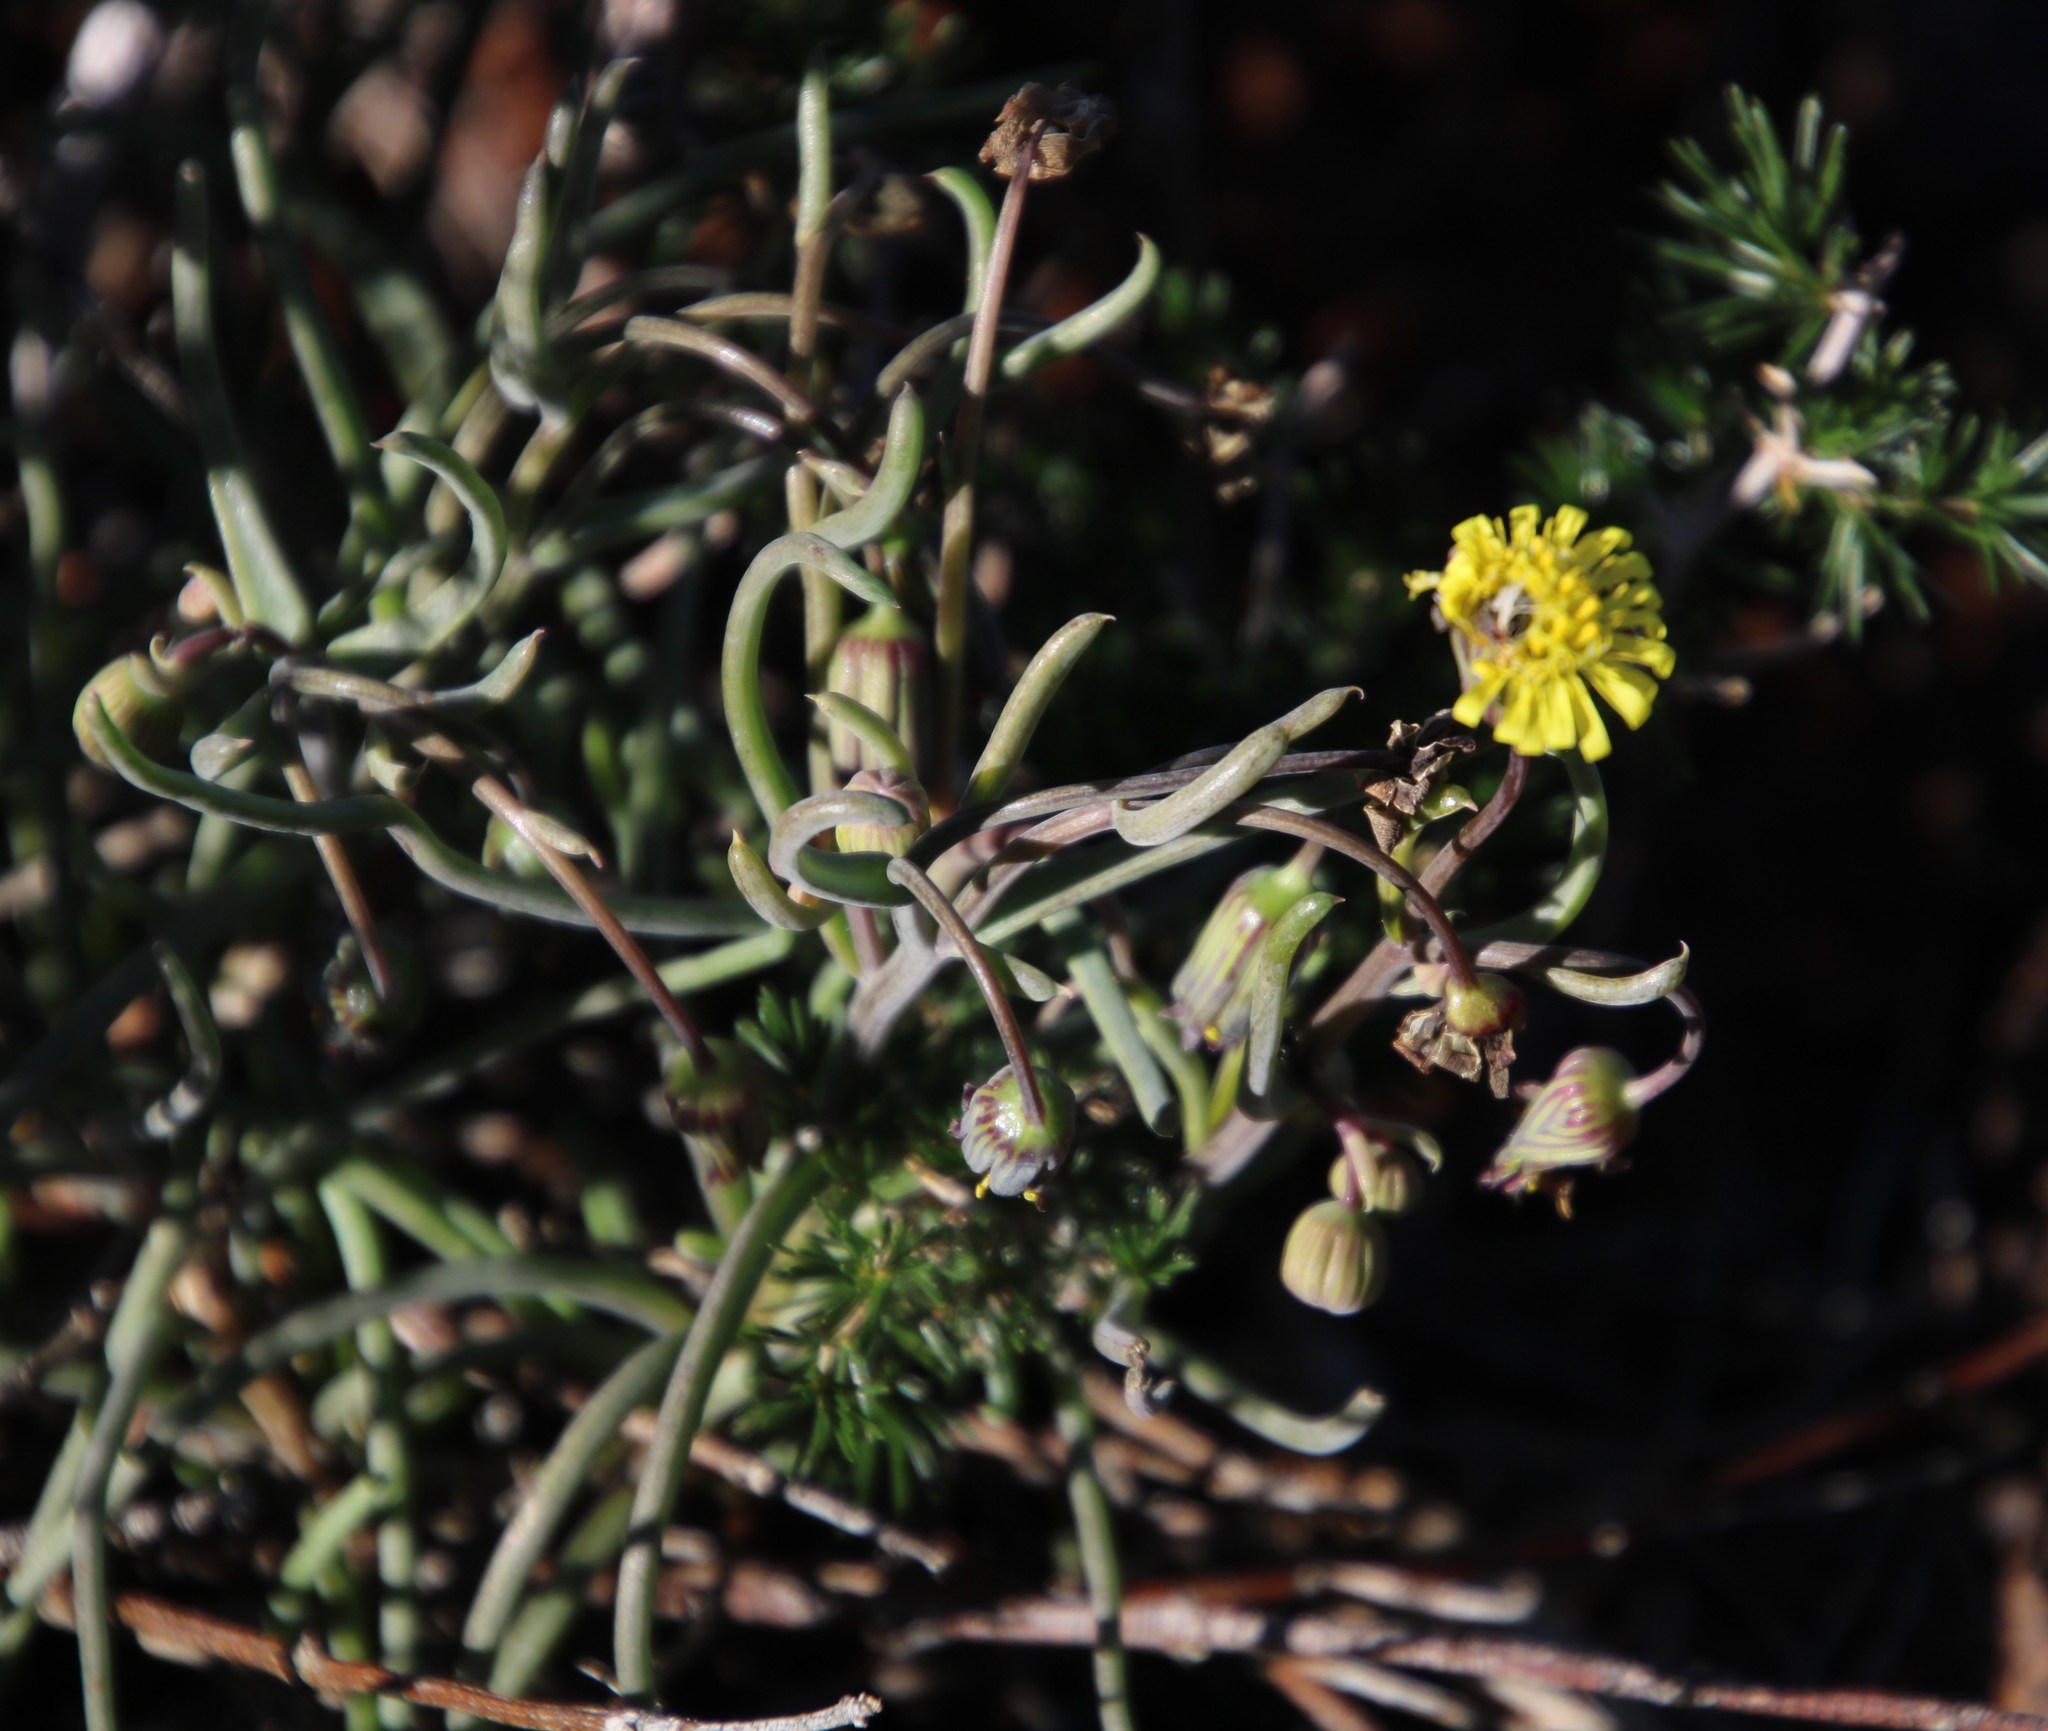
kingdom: Plantae
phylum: Tracheophyta
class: Magnoliopsida
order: Asterales
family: Asteraceae
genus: Crassothonna
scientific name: Crassothonna protecta
